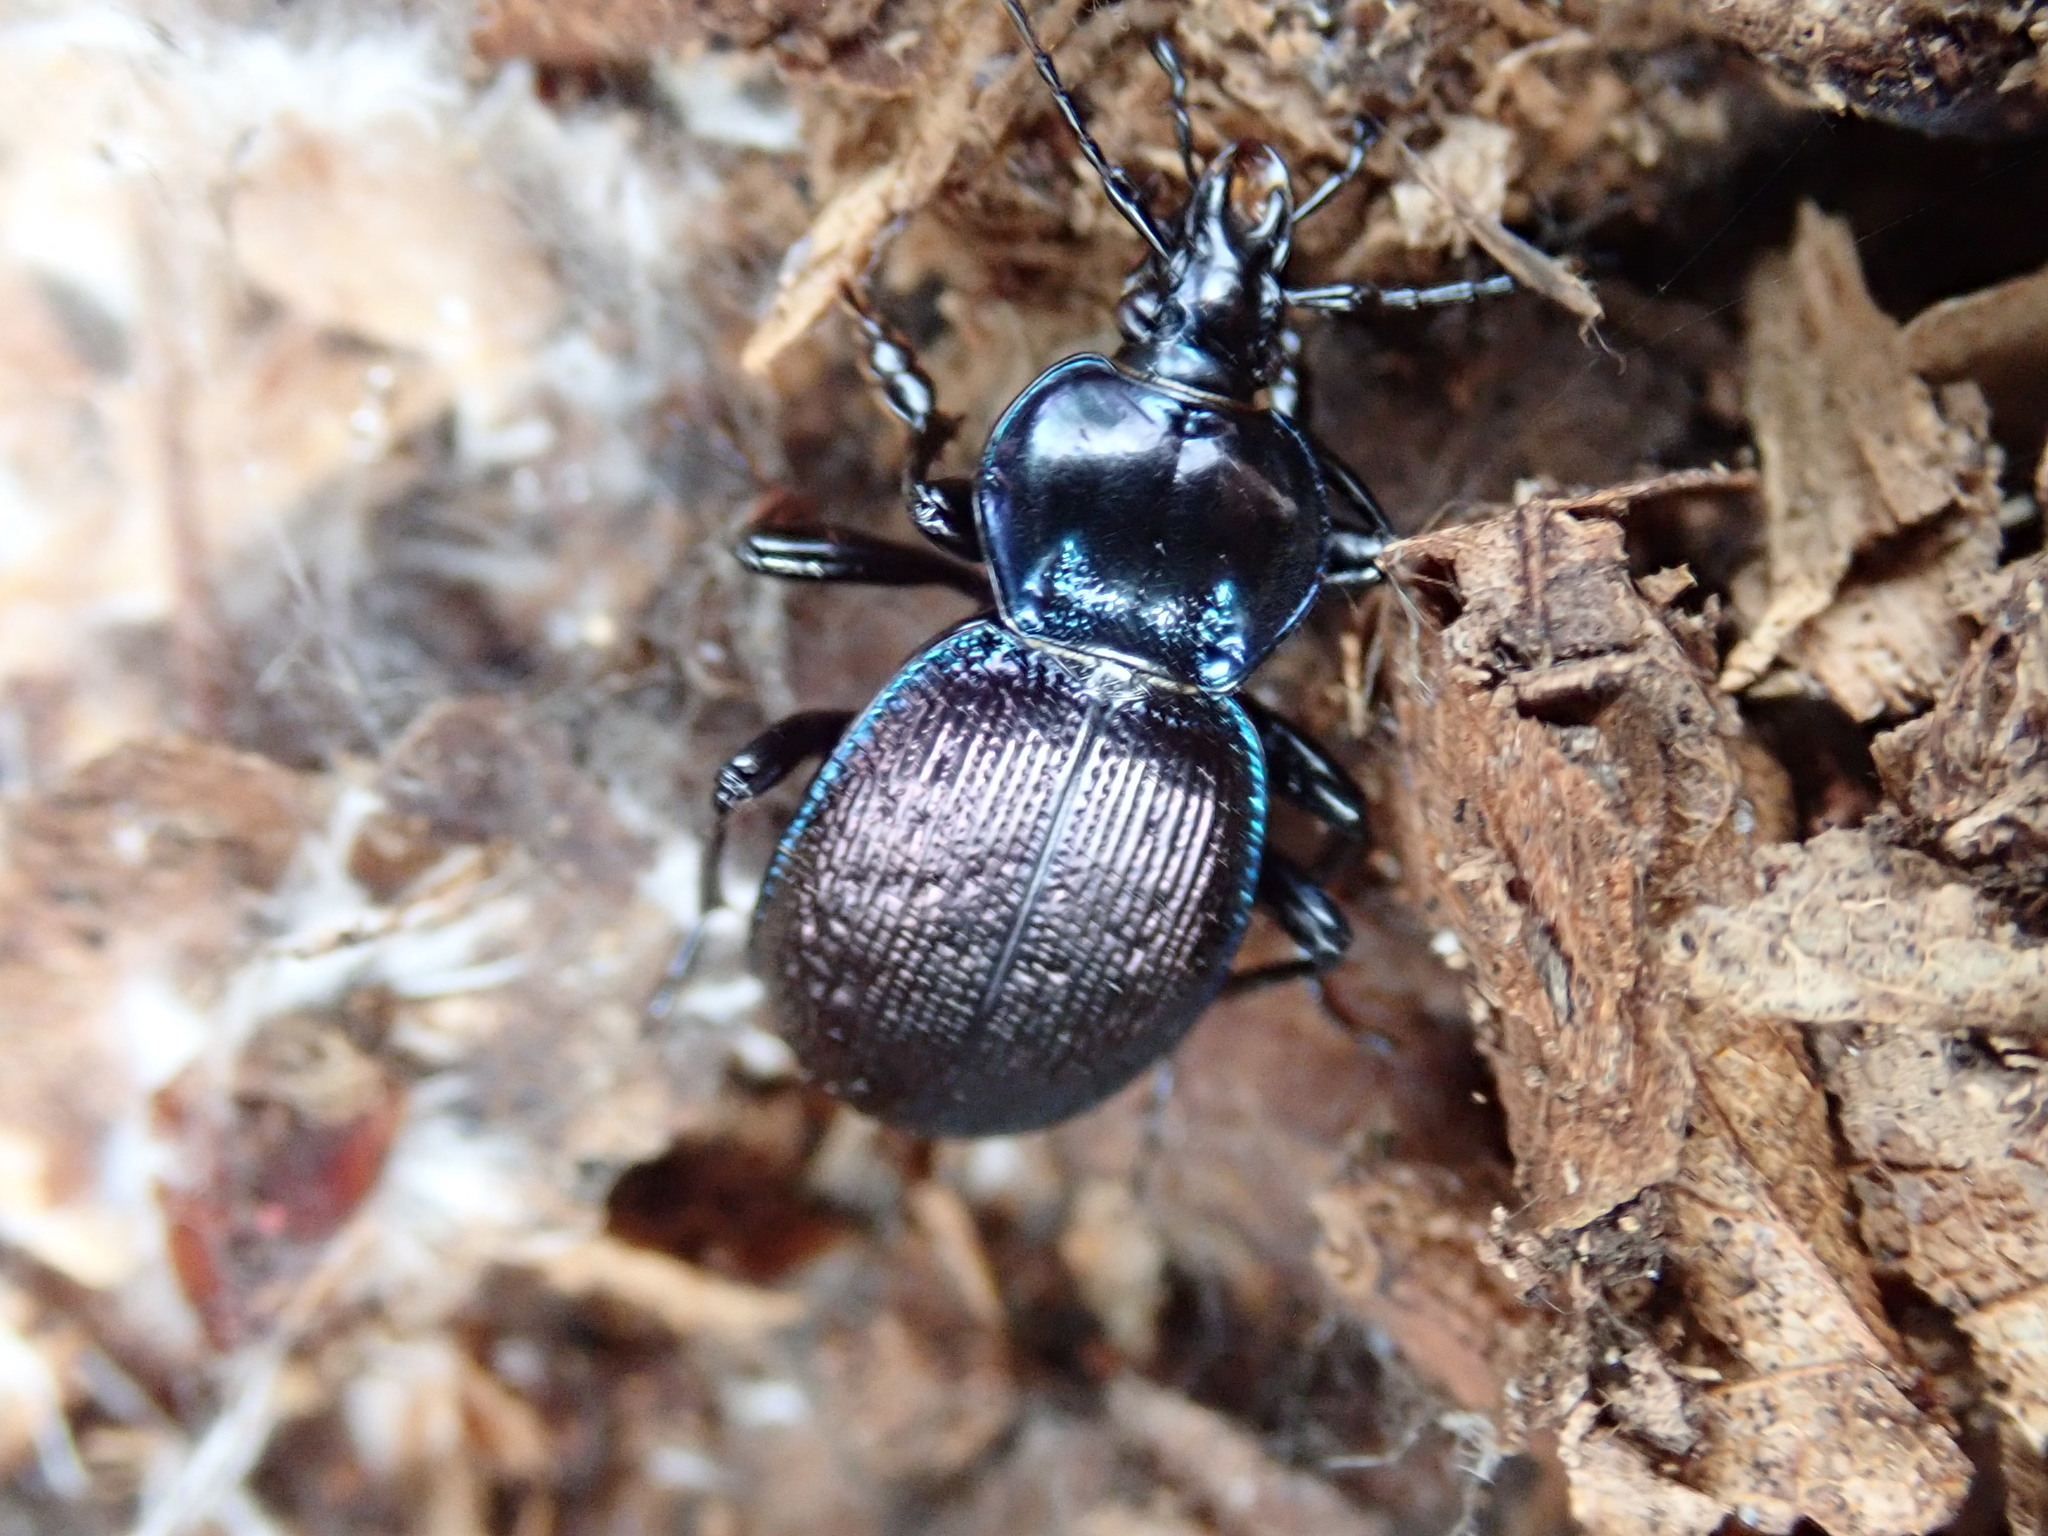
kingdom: Animalia
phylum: Arthropoda
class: Insecta
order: Coleoptera
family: Carabidae
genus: Sphaeroderus
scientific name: Sphaeroderus stenostomus
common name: Small snail-eating ground beetle
